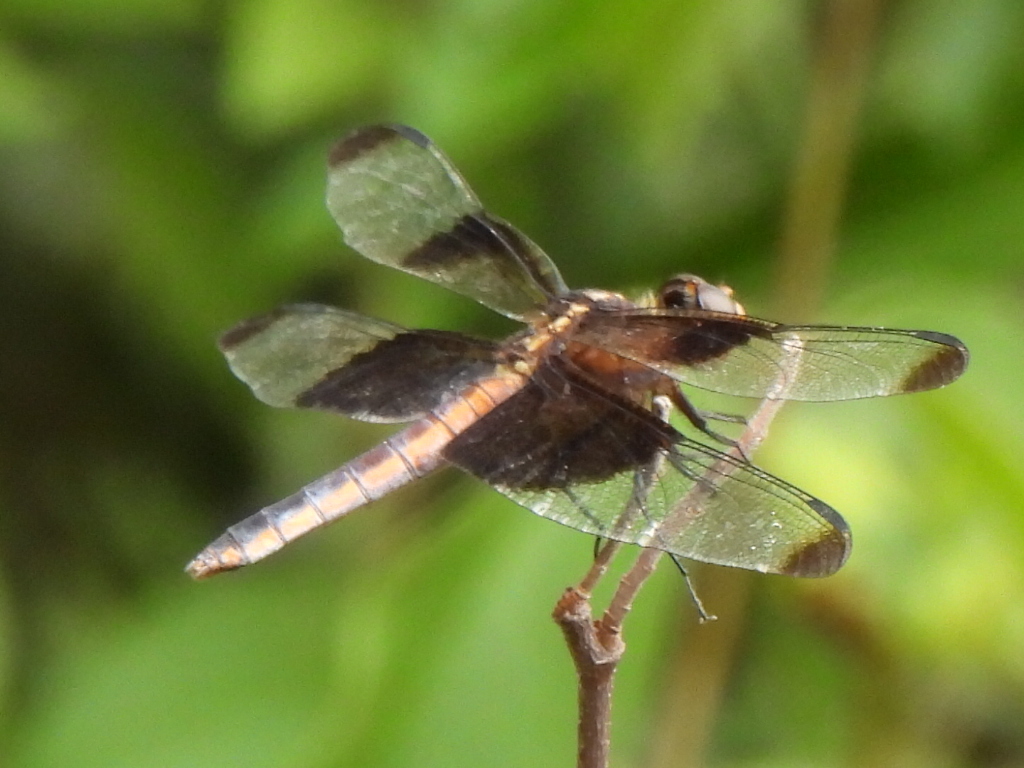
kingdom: Animalia
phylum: Arthropoda
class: Insecta
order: Odonata
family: Libellulidae
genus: Libellula
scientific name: Libellula luctuosa
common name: Widow skimmer
